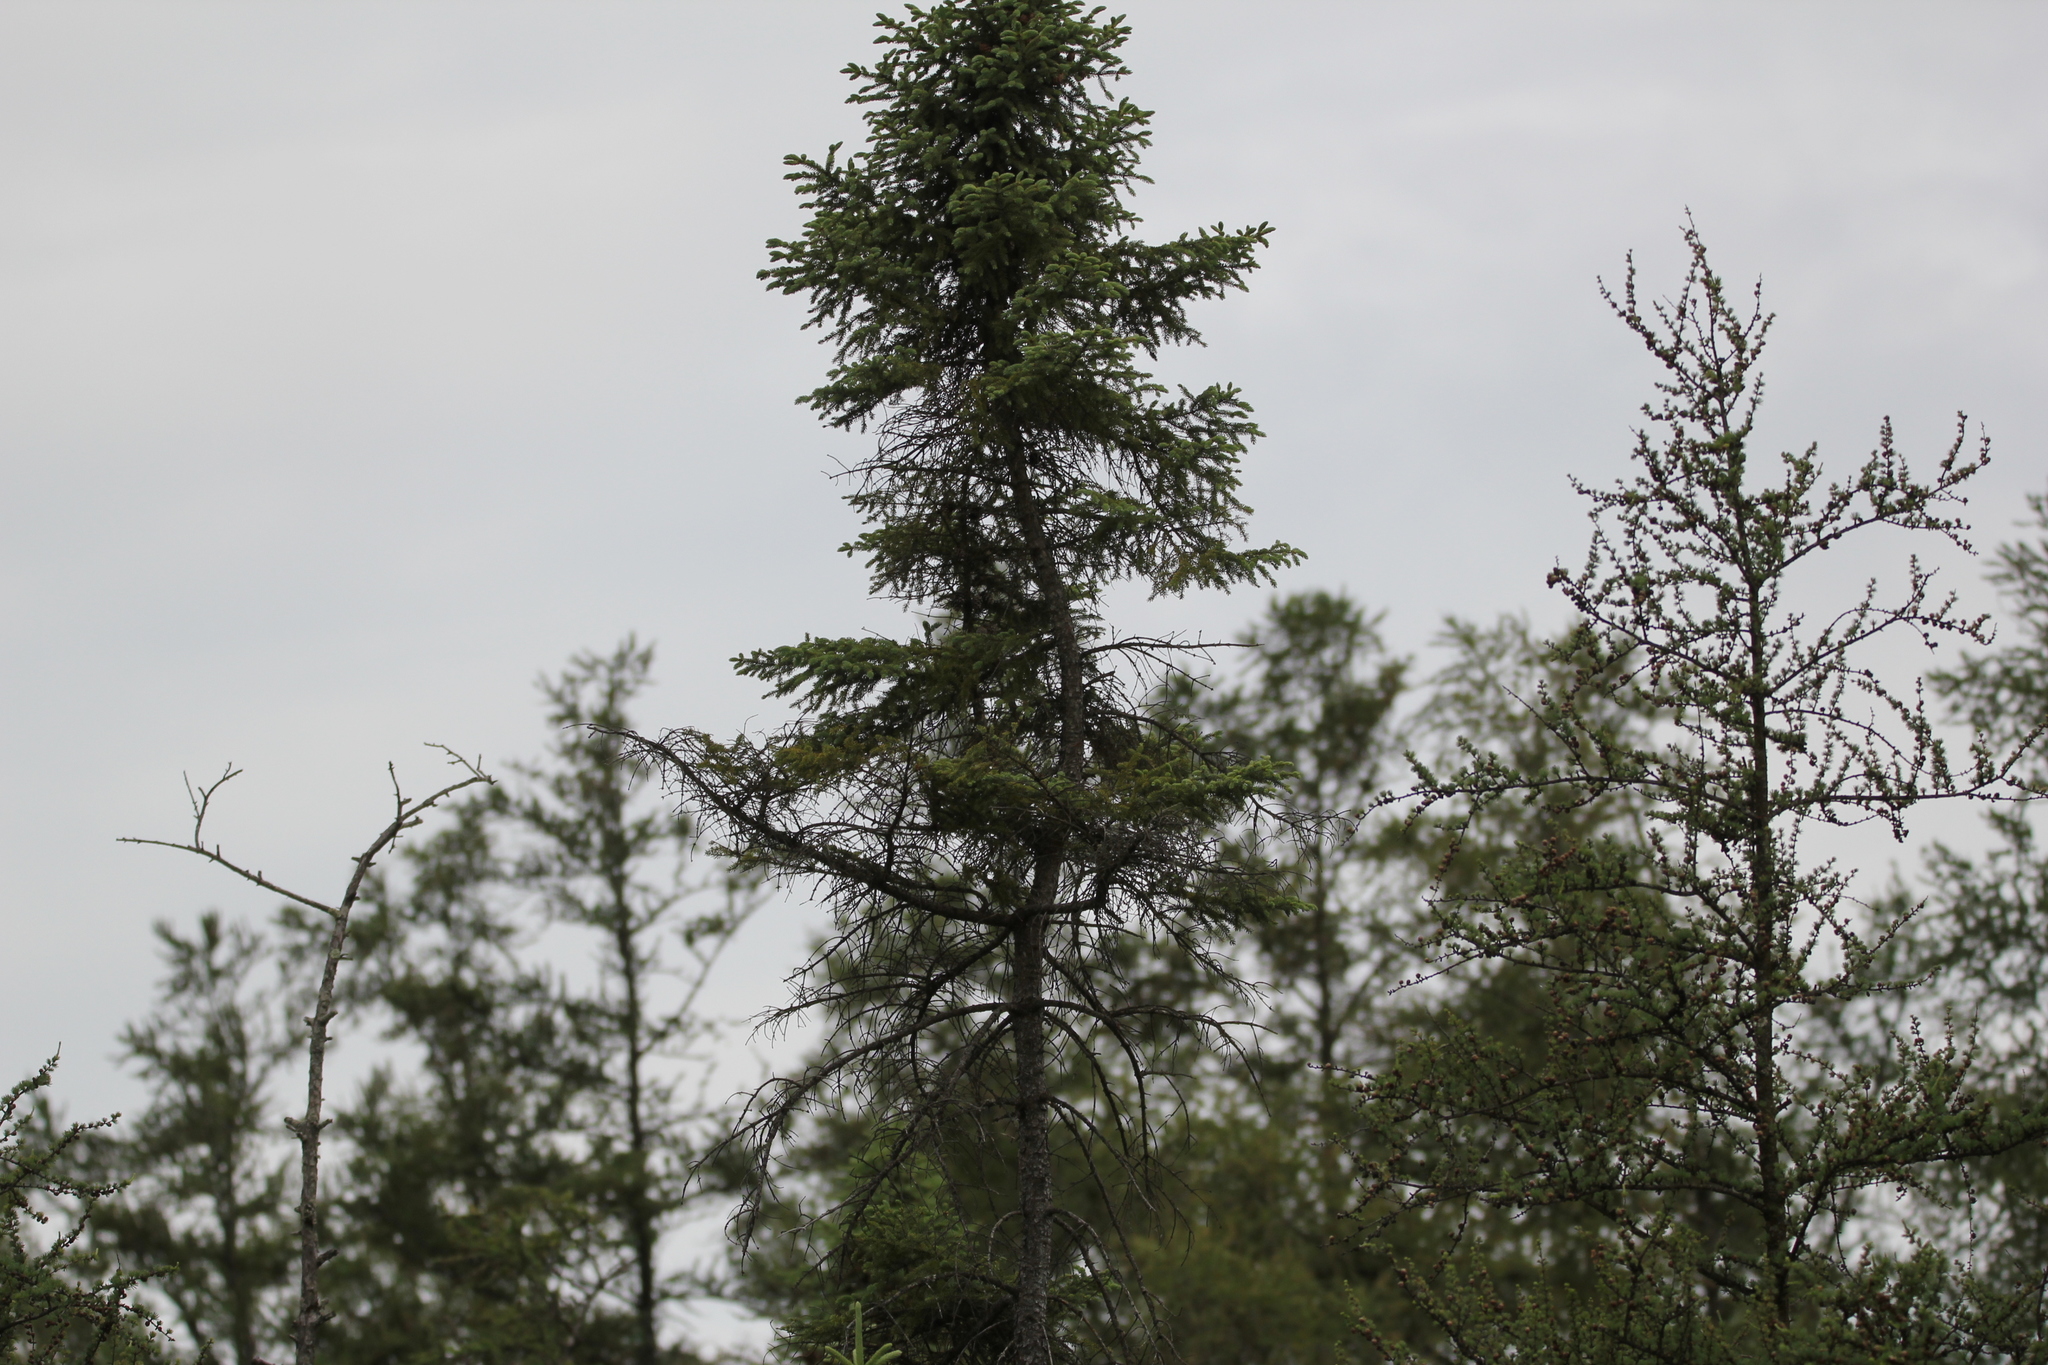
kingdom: Plantae
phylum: Tracheophyta
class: Pinopsida
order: Pinales
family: Pinaceae
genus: Picea
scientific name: Picea mariana
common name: Black spruce
